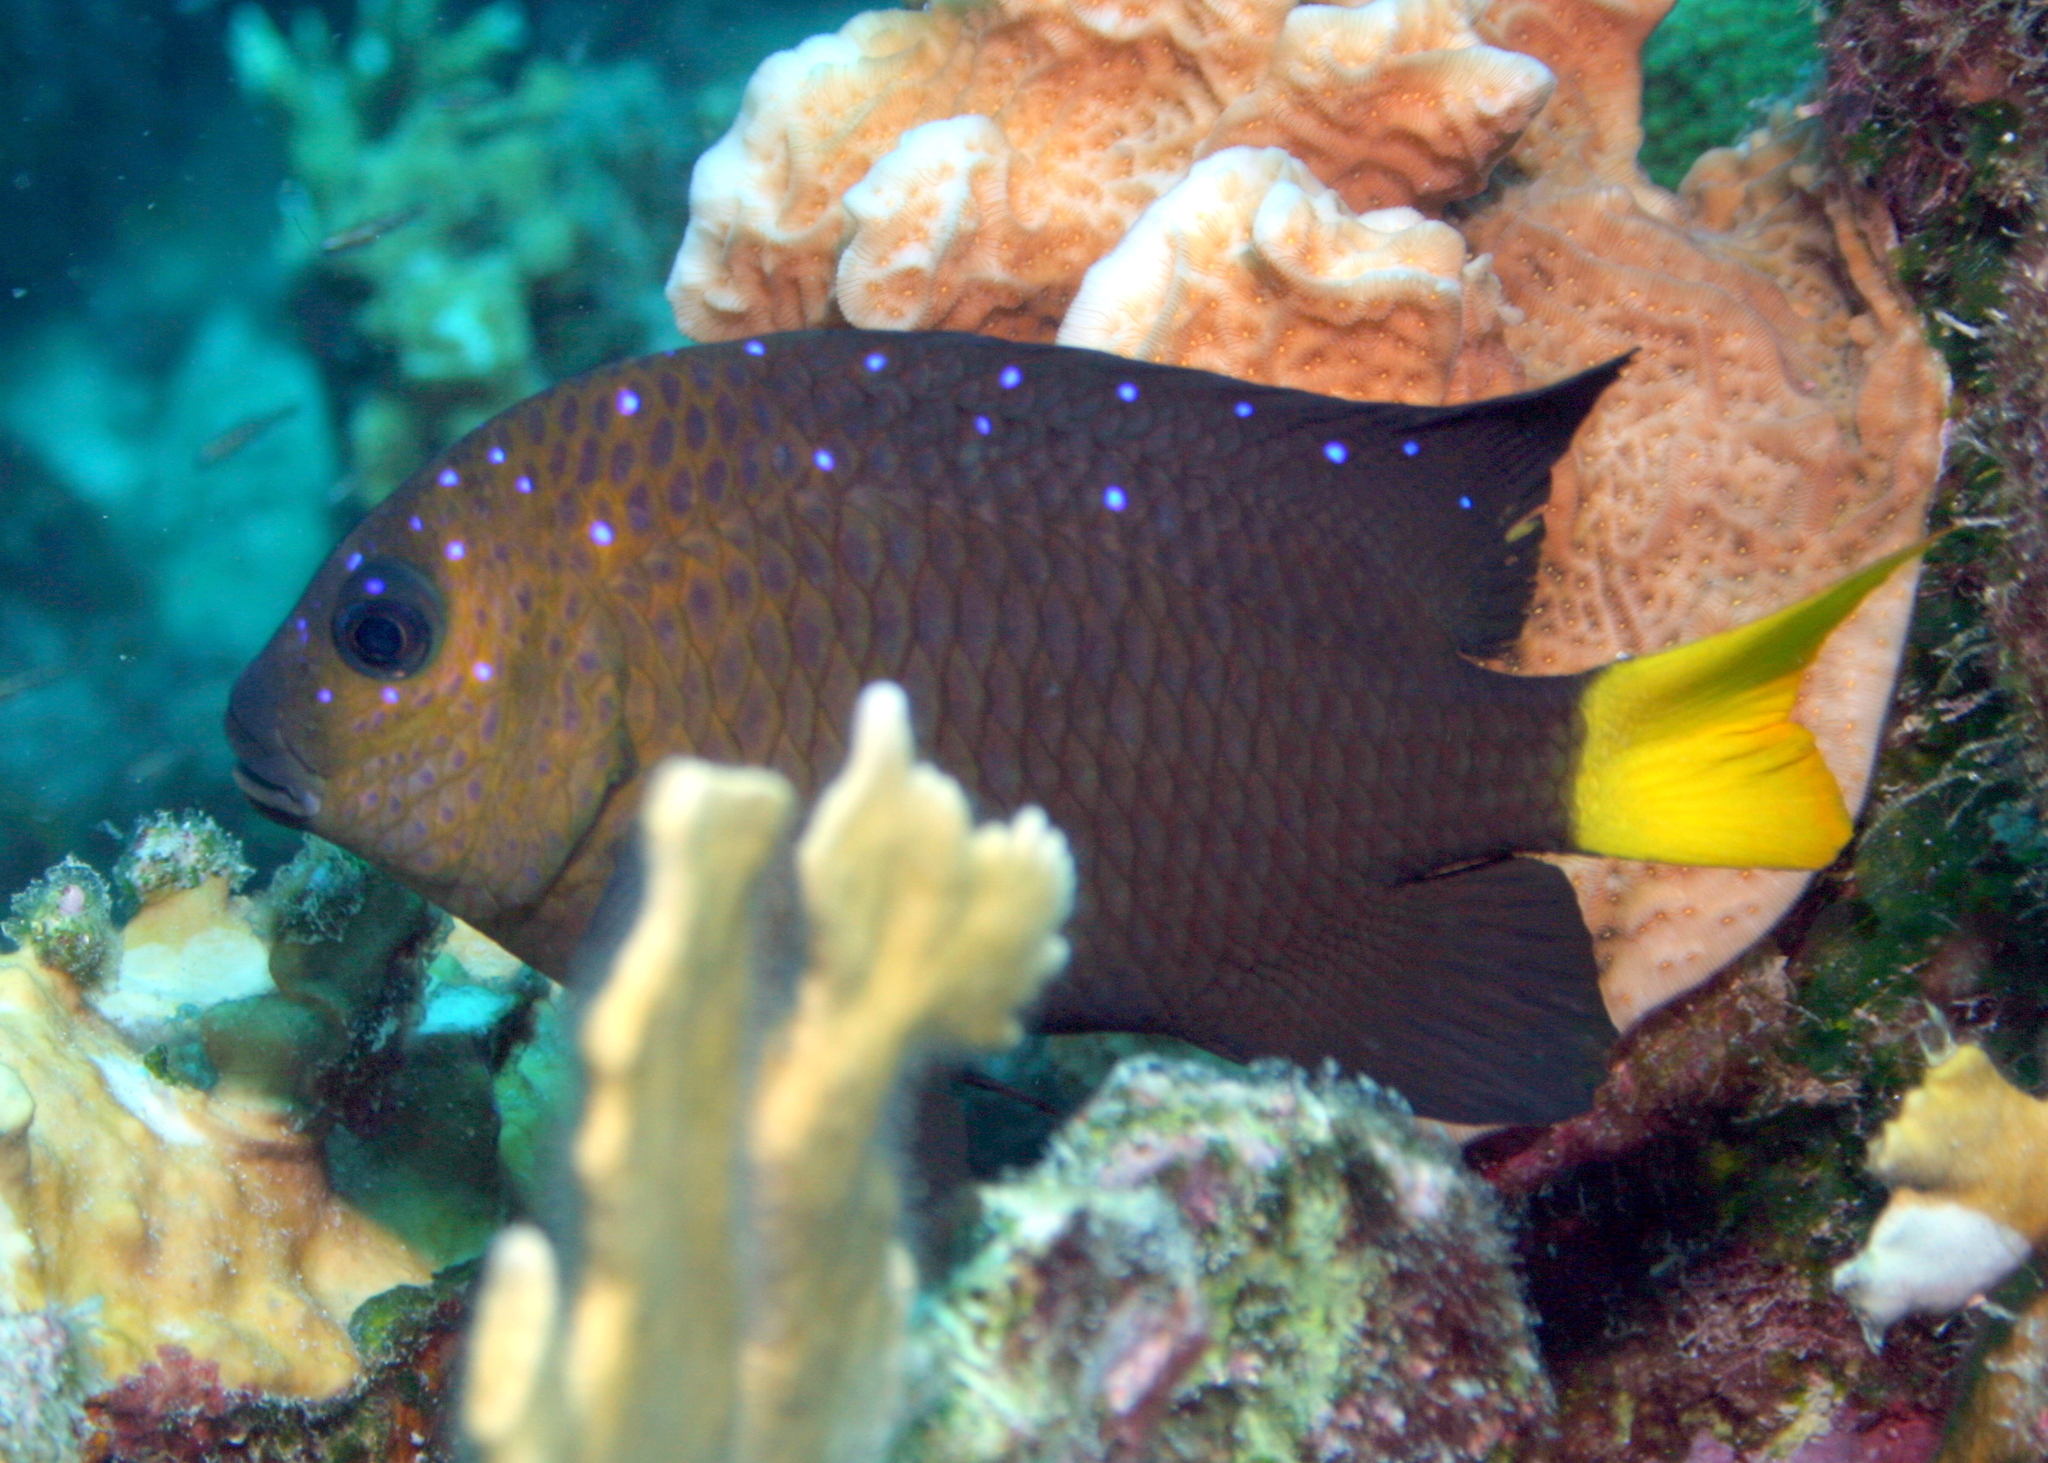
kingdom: Animalia
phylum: Chordata
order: Perciformes
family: Pomacentridae
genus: Microspathodon
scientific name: Microspathodon chrysurus
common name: Yellowtail damselfish
